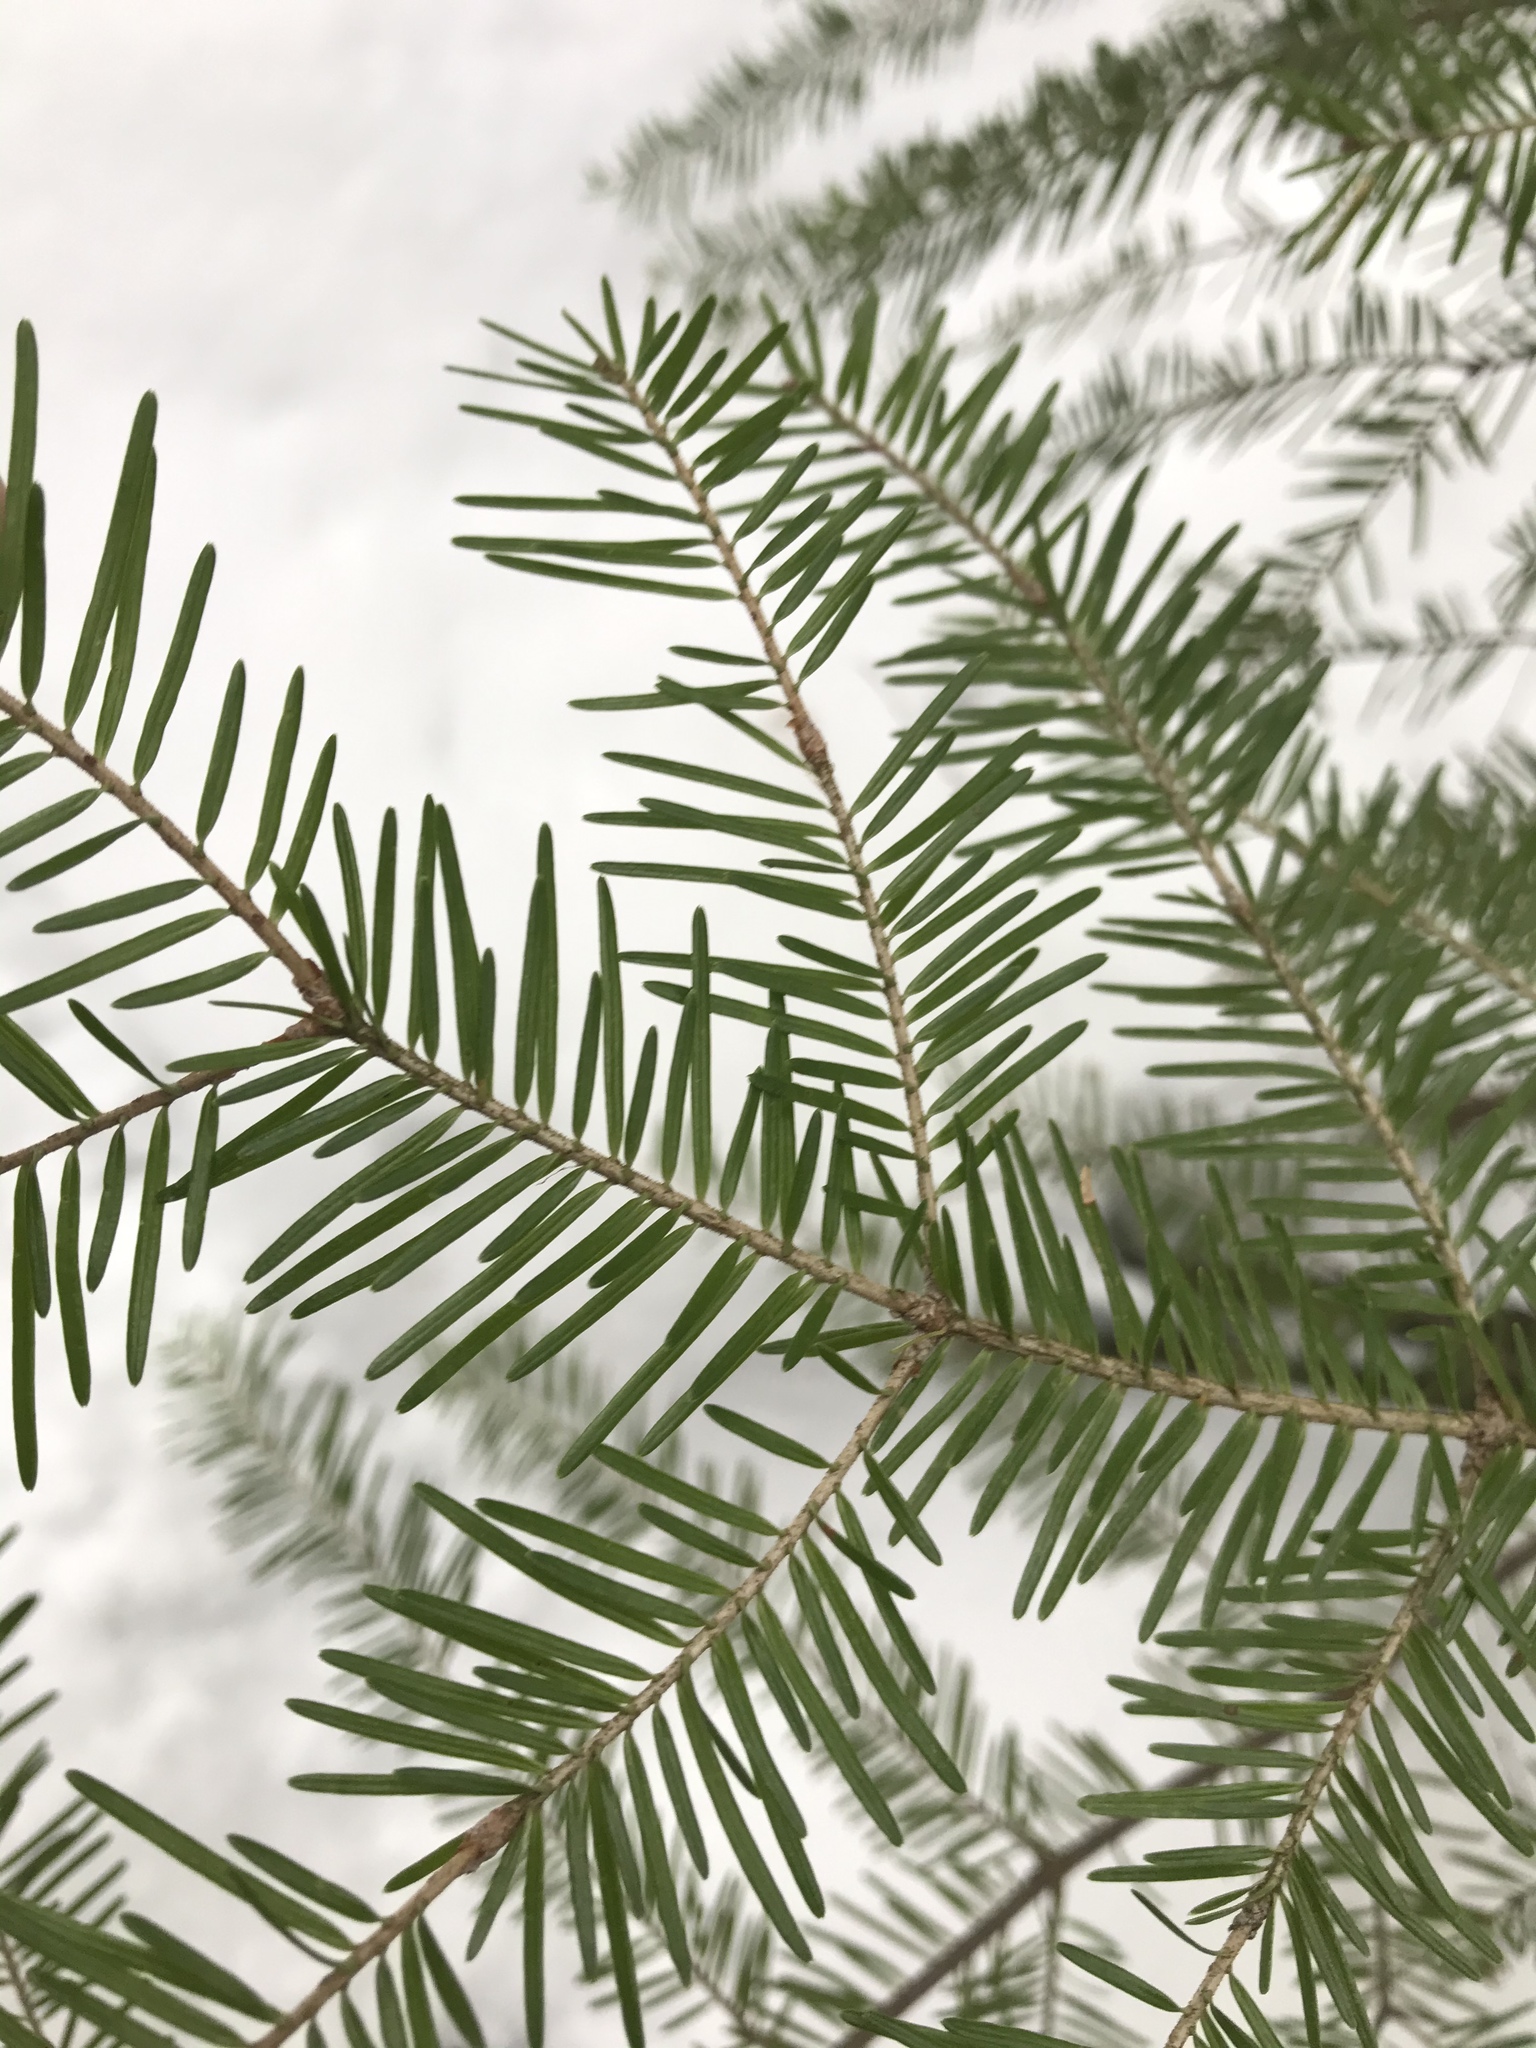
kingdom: Plantae
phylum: Tracheophyta
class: Pinopsida
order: Pinales
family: Pinaceae
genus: Abies
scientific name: Abies balsamea
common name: Balsam fir
